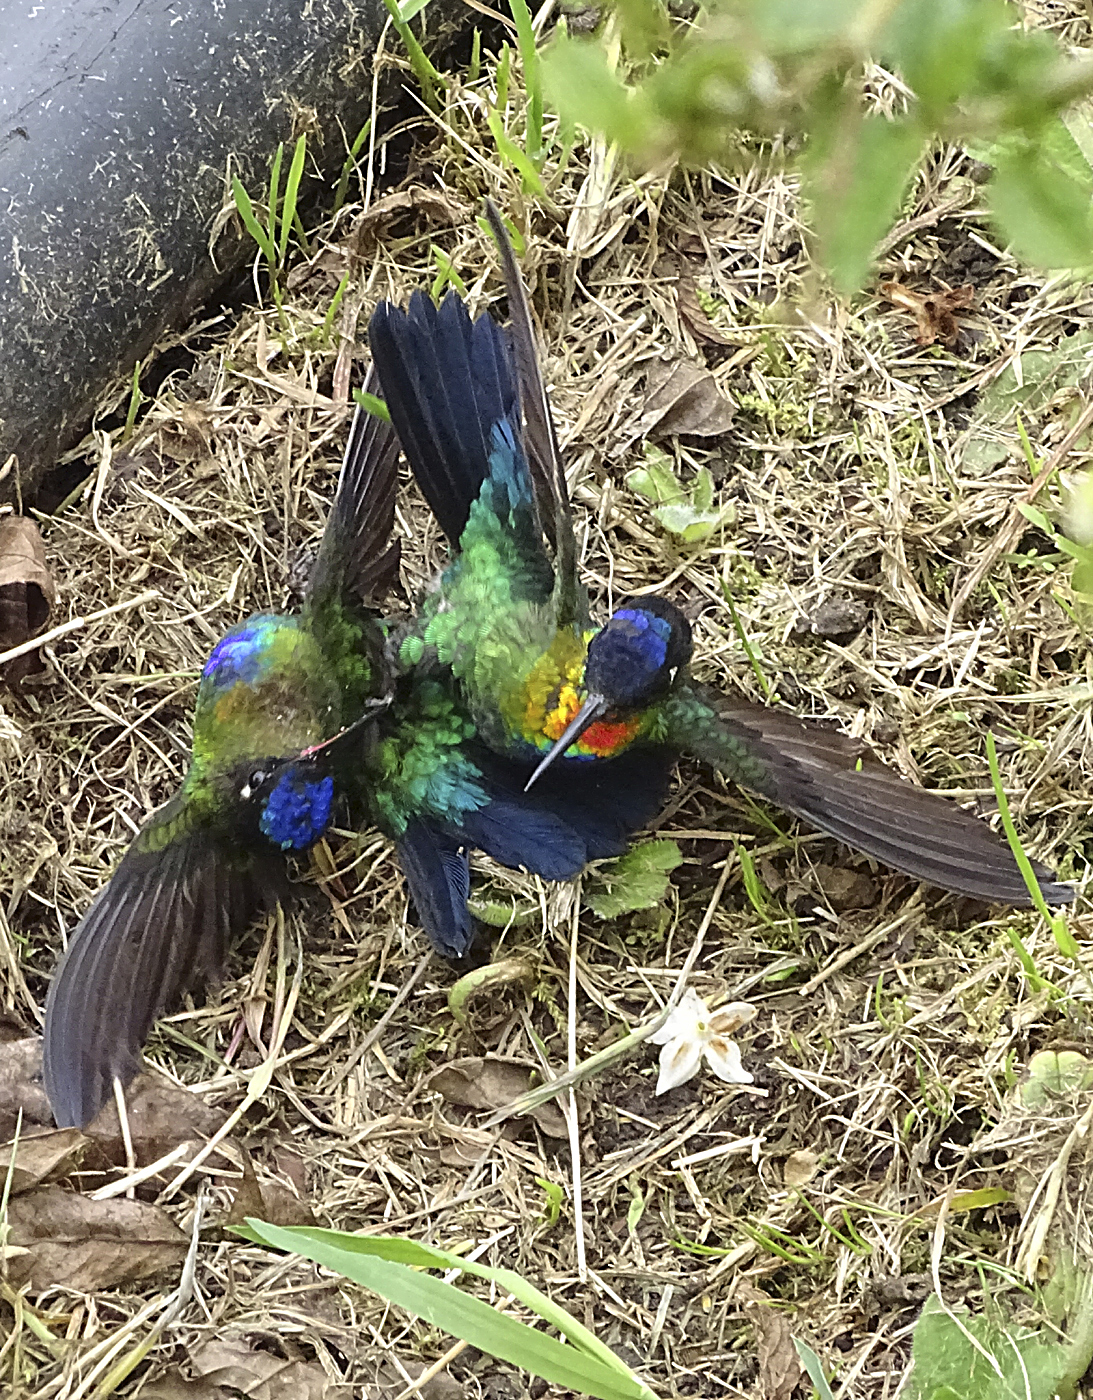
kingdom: Animalia
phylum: Chordata
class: Aves
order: Apodiformes
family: Trochilidae
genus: Panterpe
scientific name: Panterpe insignis
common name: Fiery-throated hummingbird
